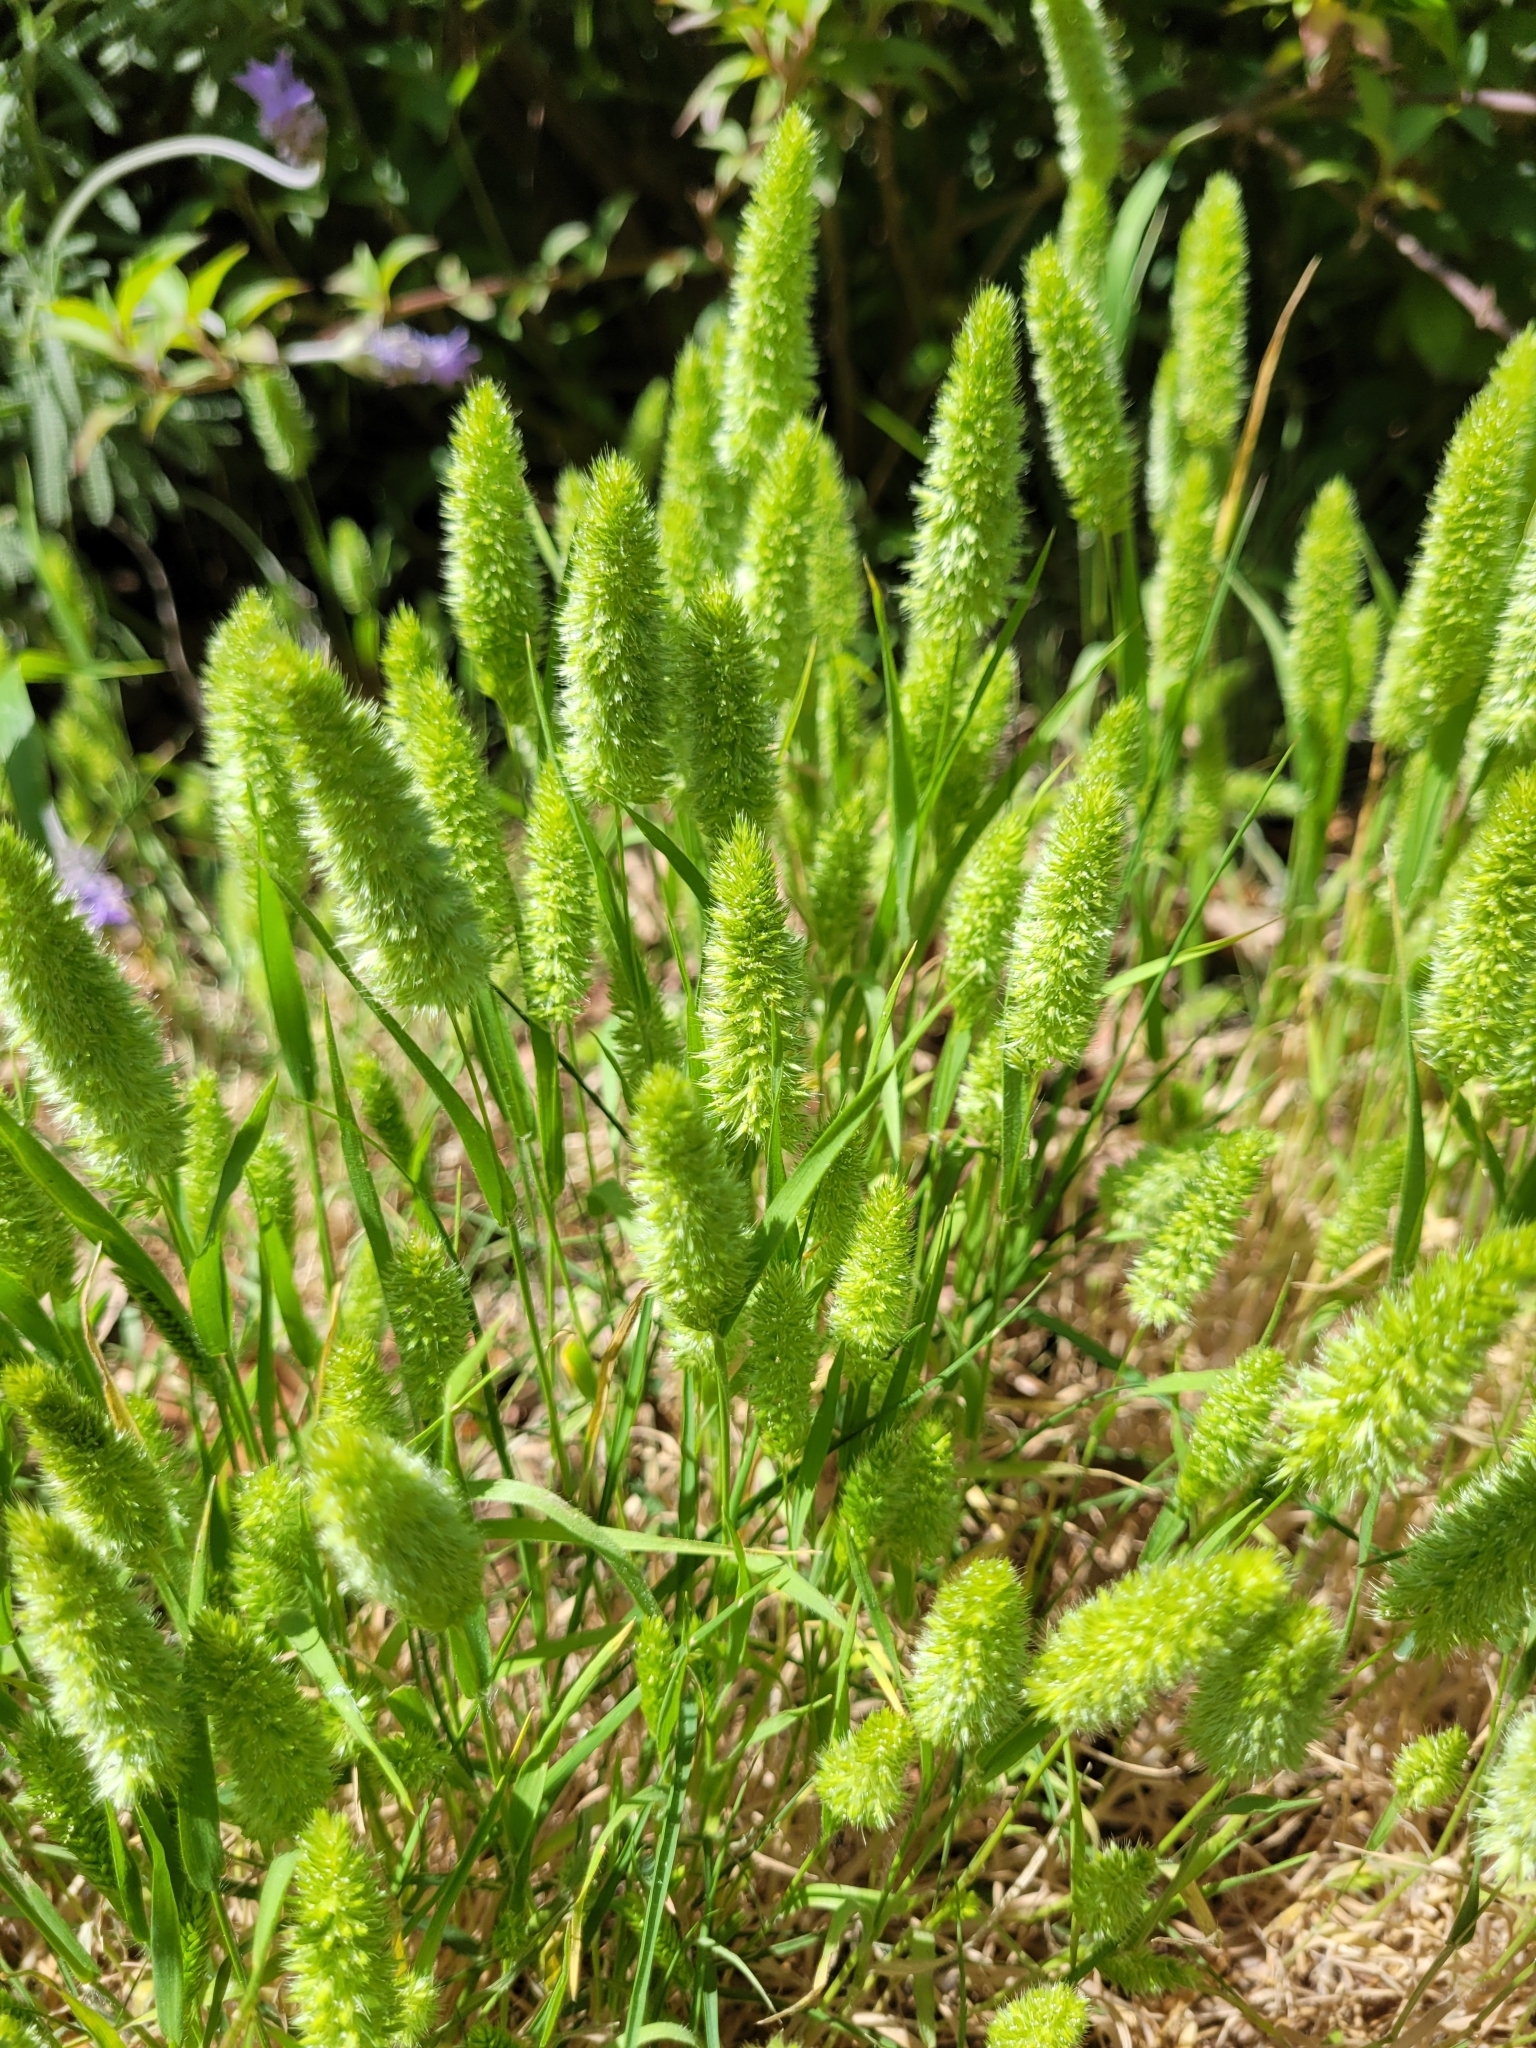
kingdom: Plantae
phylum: Tracheophyta
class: Liliopsida
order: Poales
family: Poaceae
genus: Rostraria
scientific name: Rostraria cristata
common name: Mediterranean hair-grass
